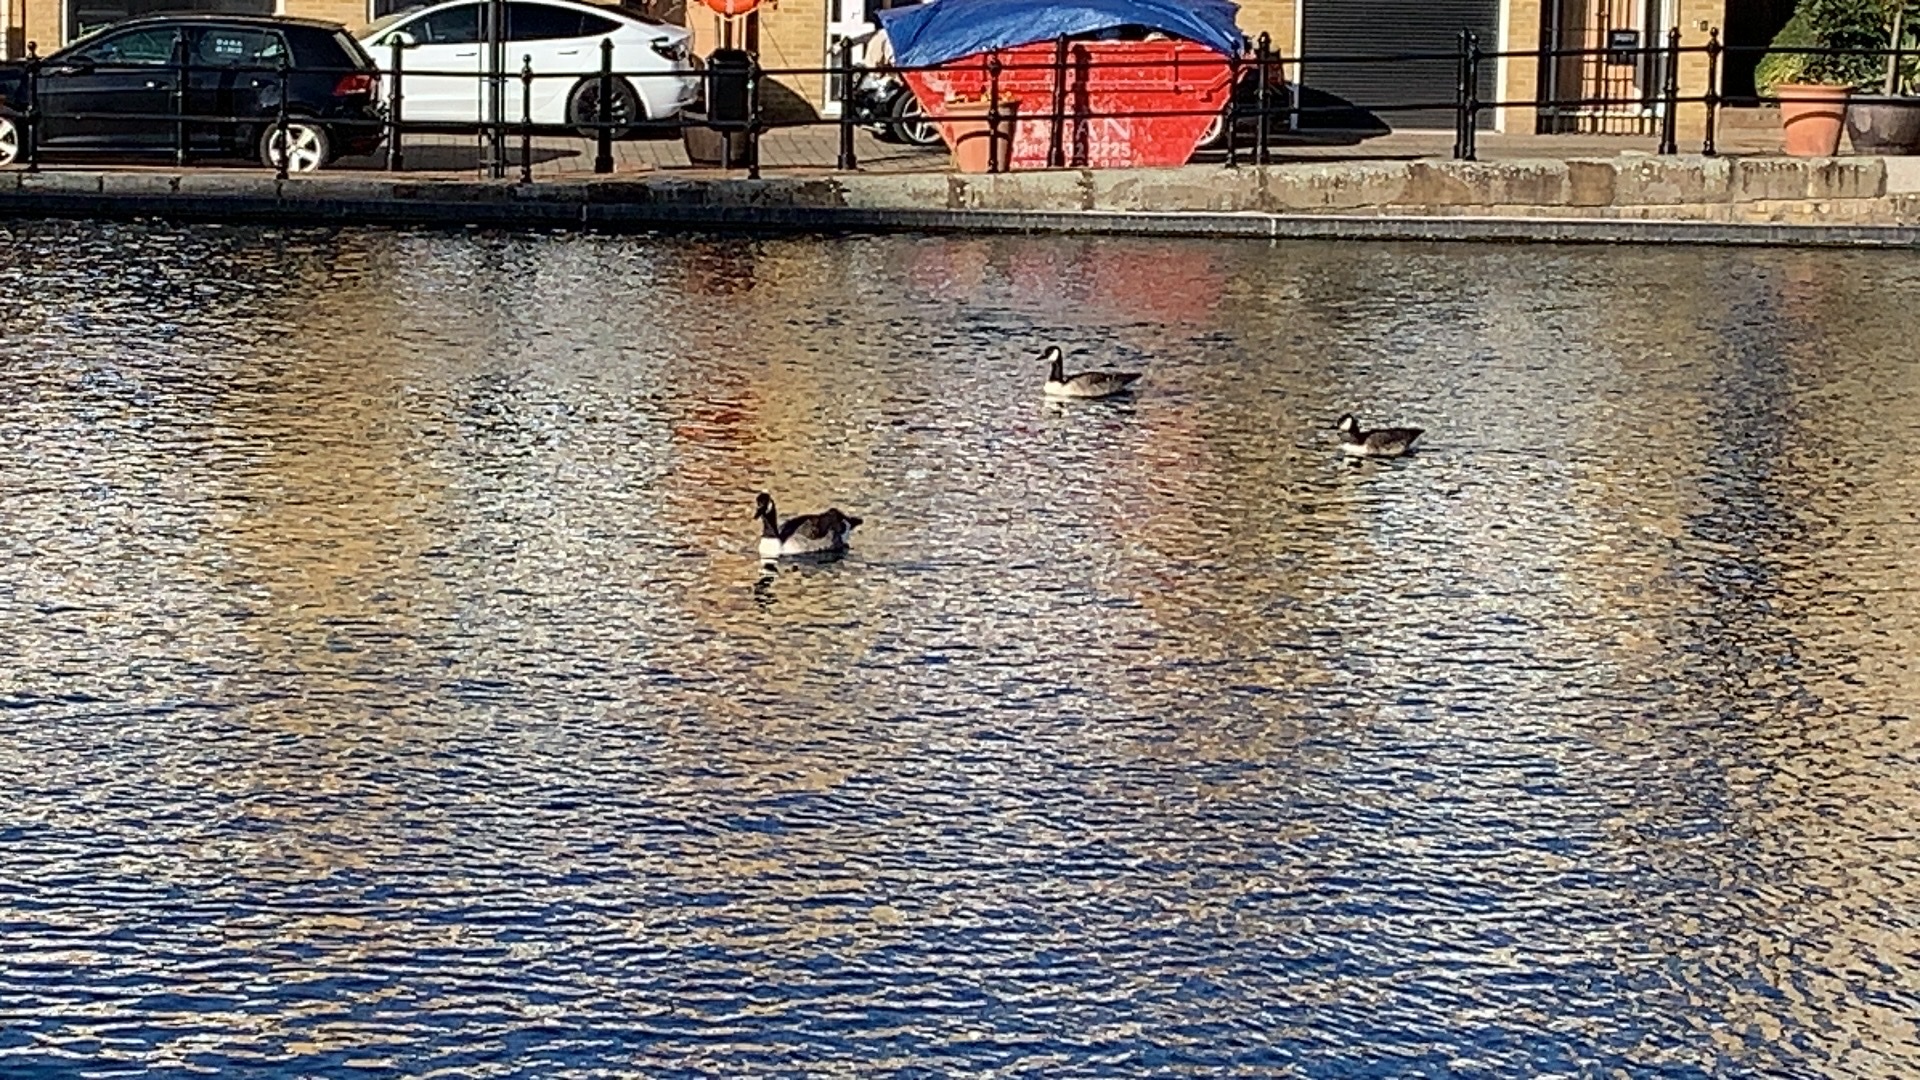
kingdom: Animalia
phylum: Chordata
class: Aves
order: Anseriformes
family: Anatidae
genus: Branta
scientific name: Branta canadensis
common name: Canada goose
